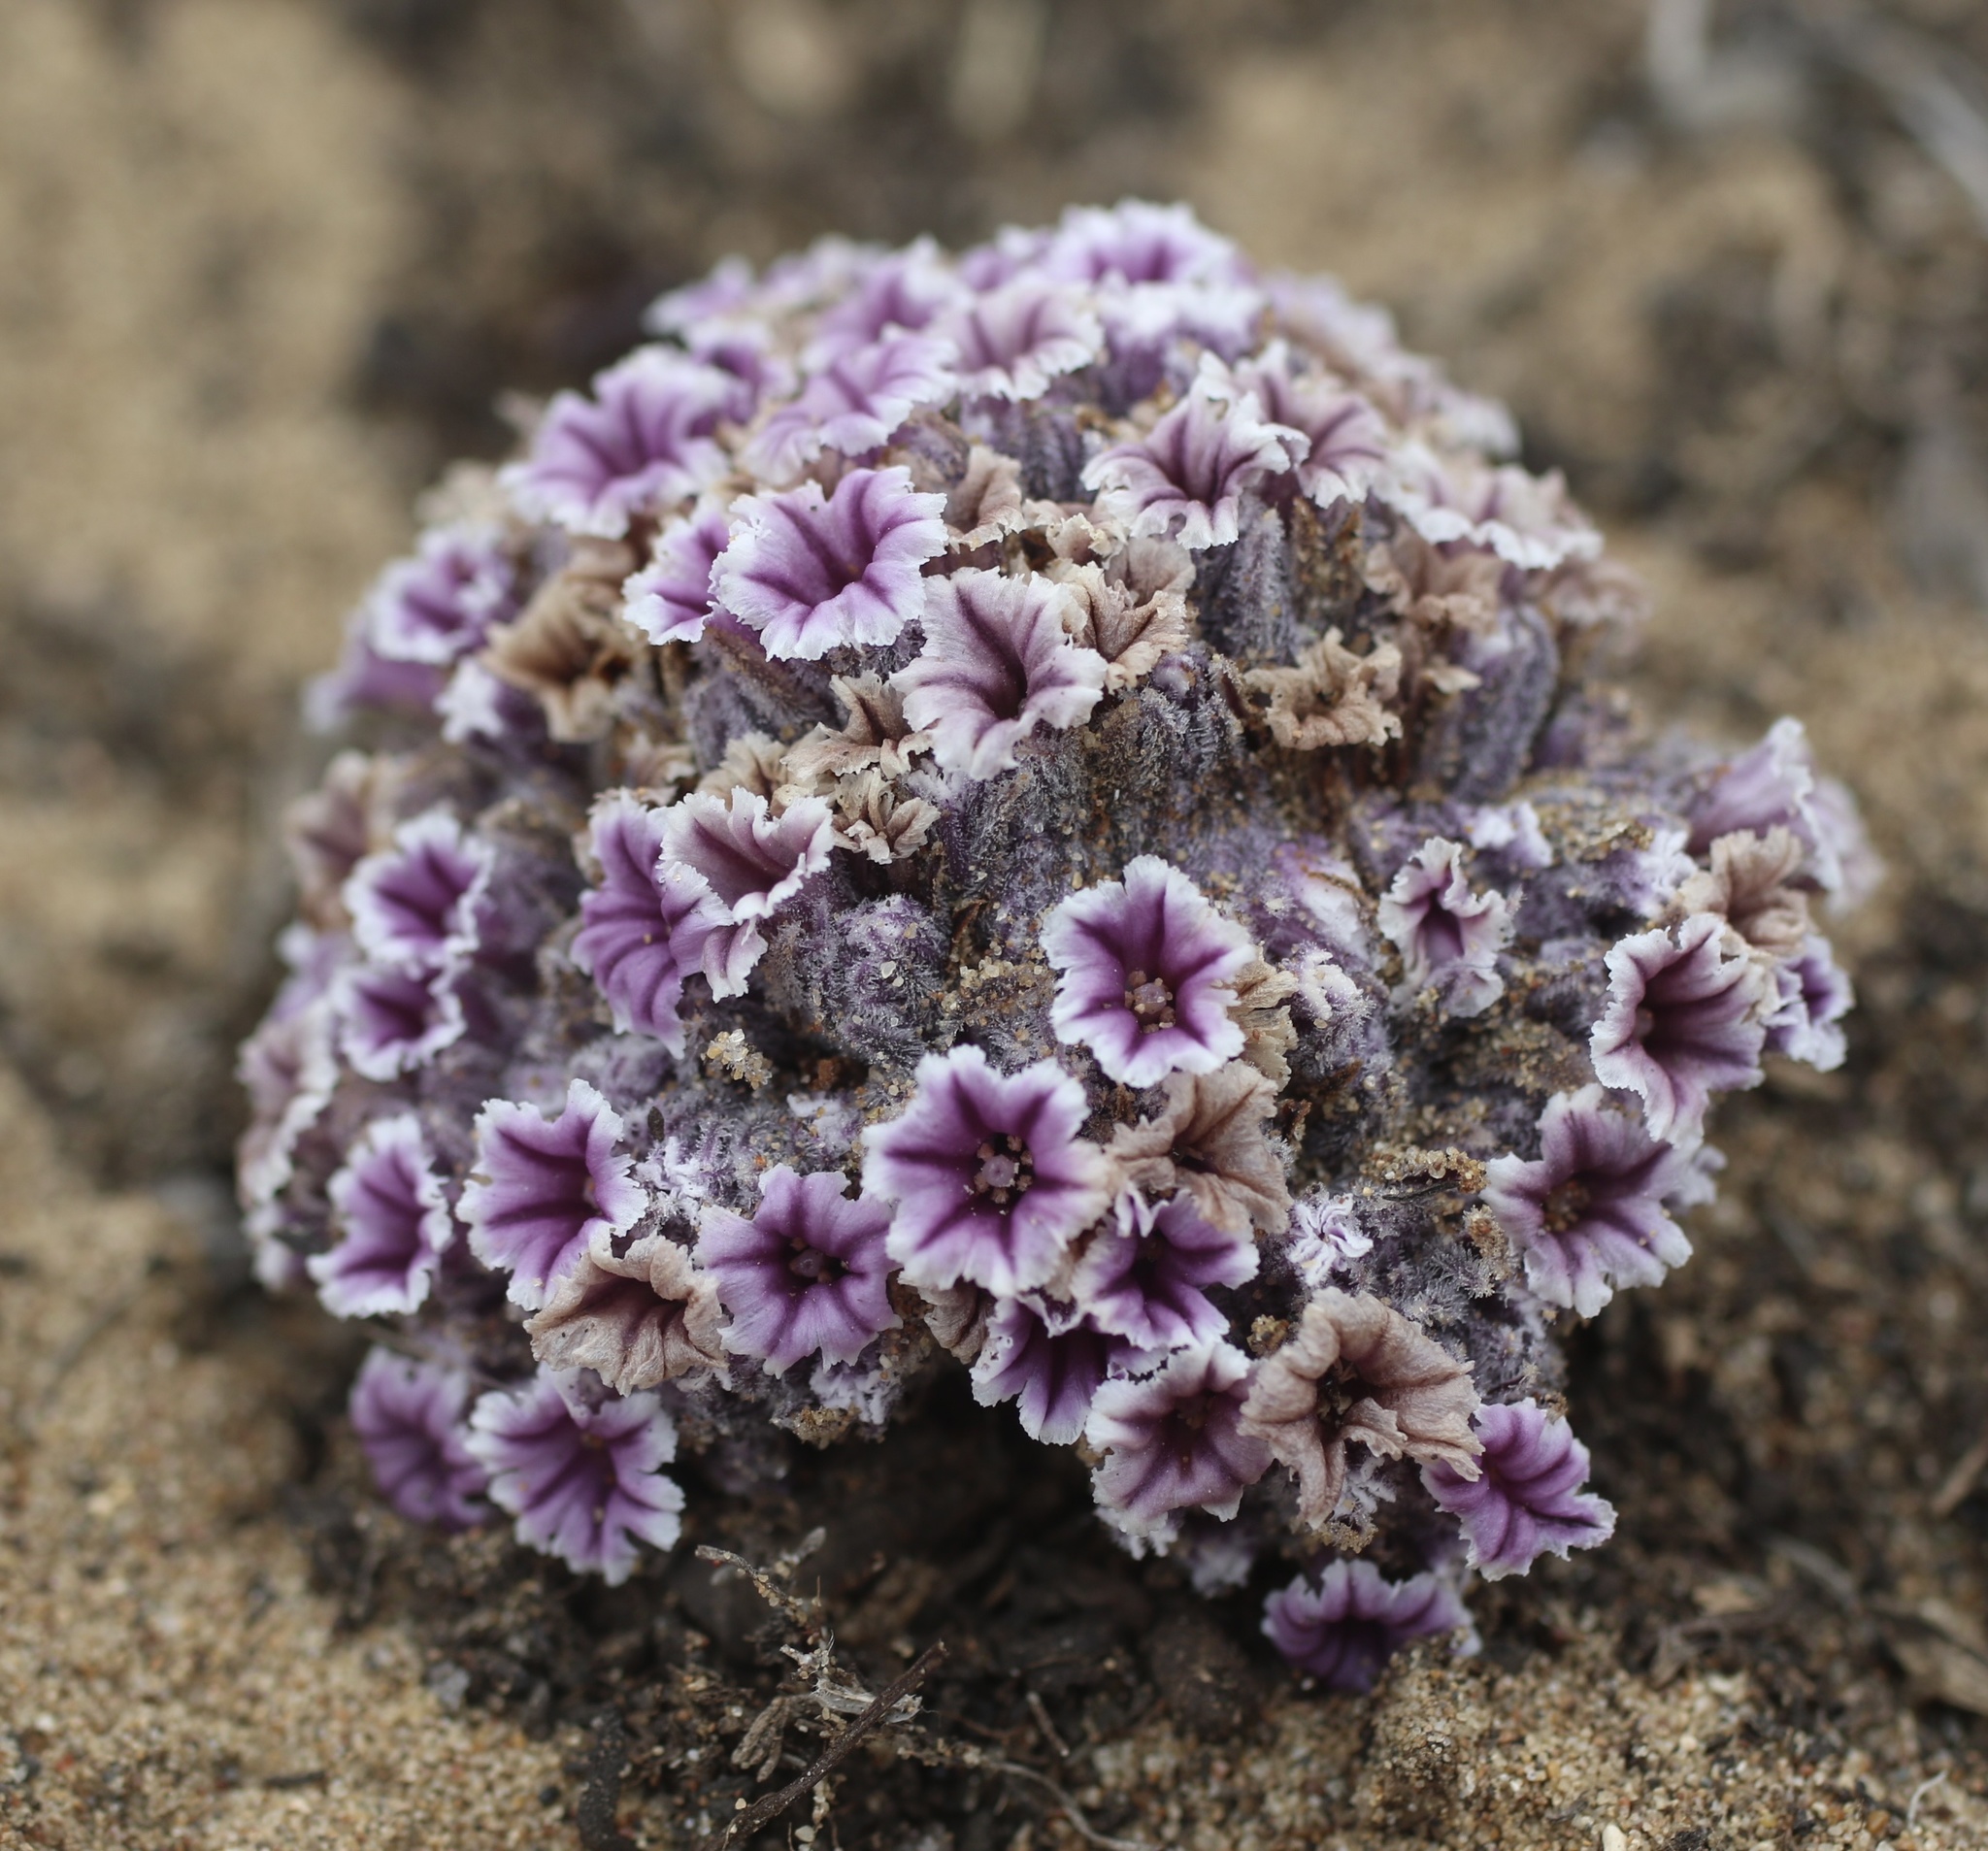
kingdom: Plantae
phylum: Tracheophyta
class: Magnoliopsida
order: Boraginales
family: Lennoaceae
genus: Pholisma
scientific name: Pholisma arenarium
